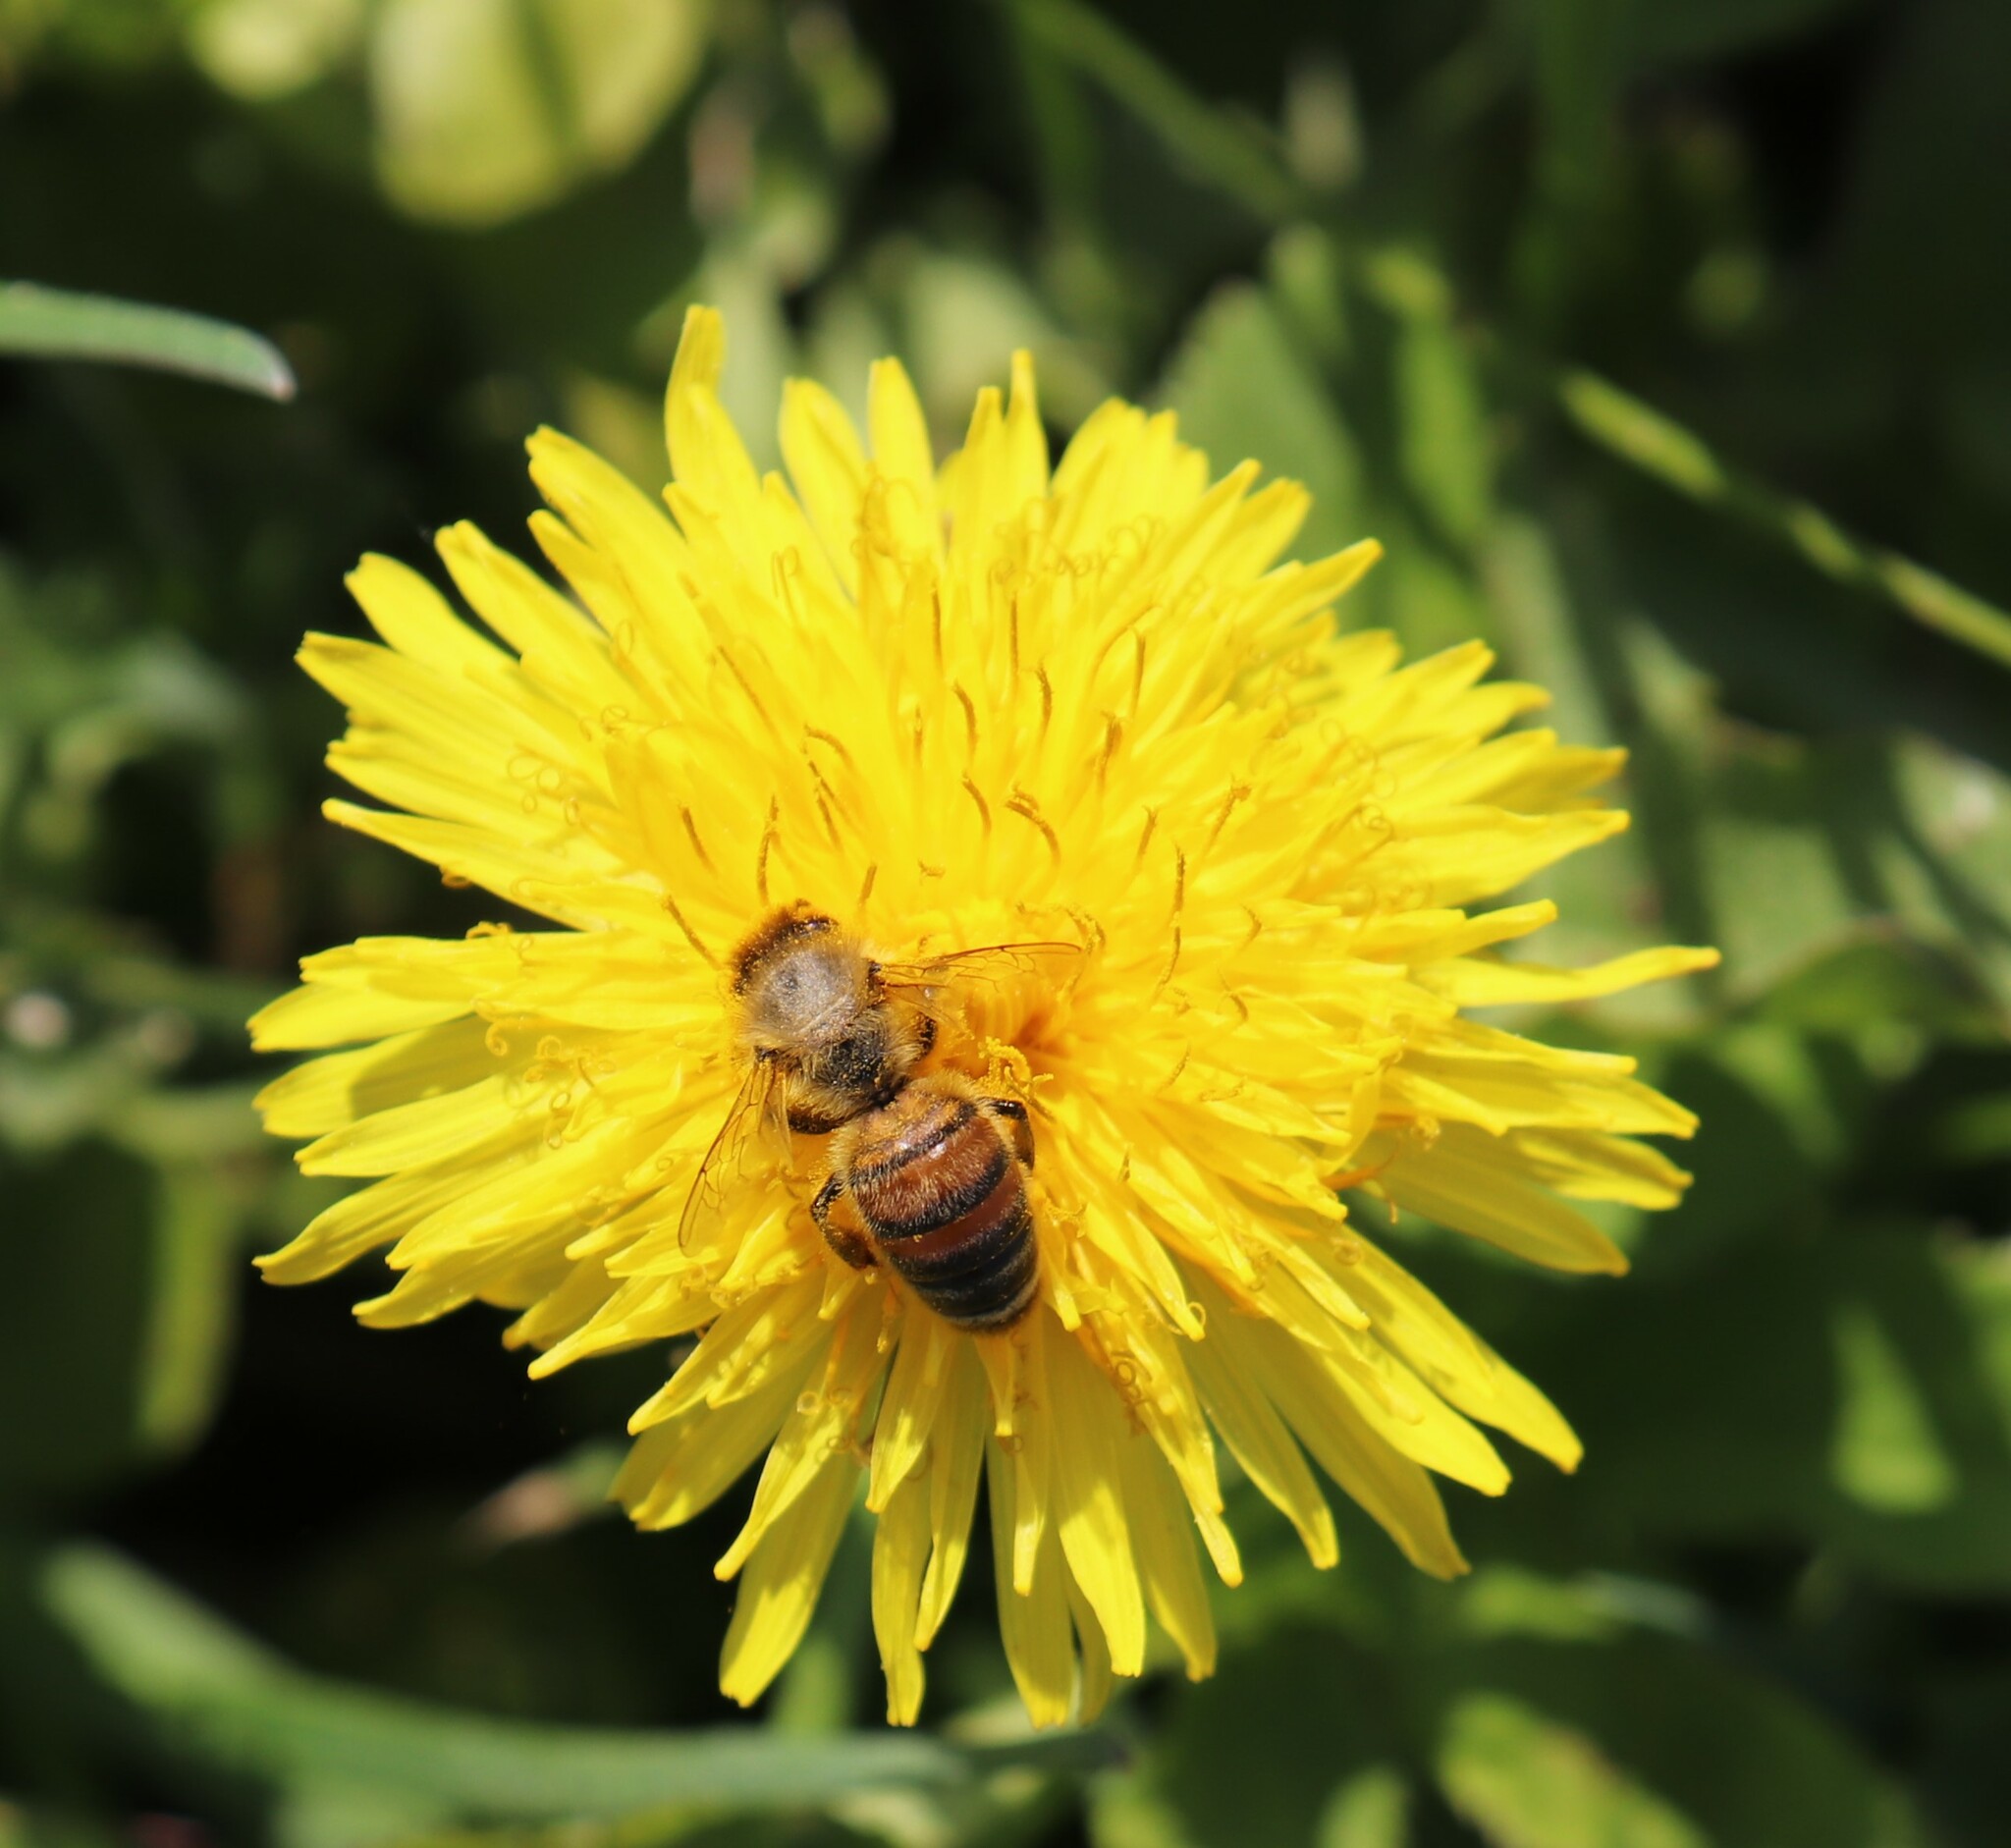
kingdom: Animalia
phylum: Arthropoda
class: Insecta
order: Hymenoptera
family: Apidae
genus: Apis
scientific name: Apis mellifera
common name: Honey bee
